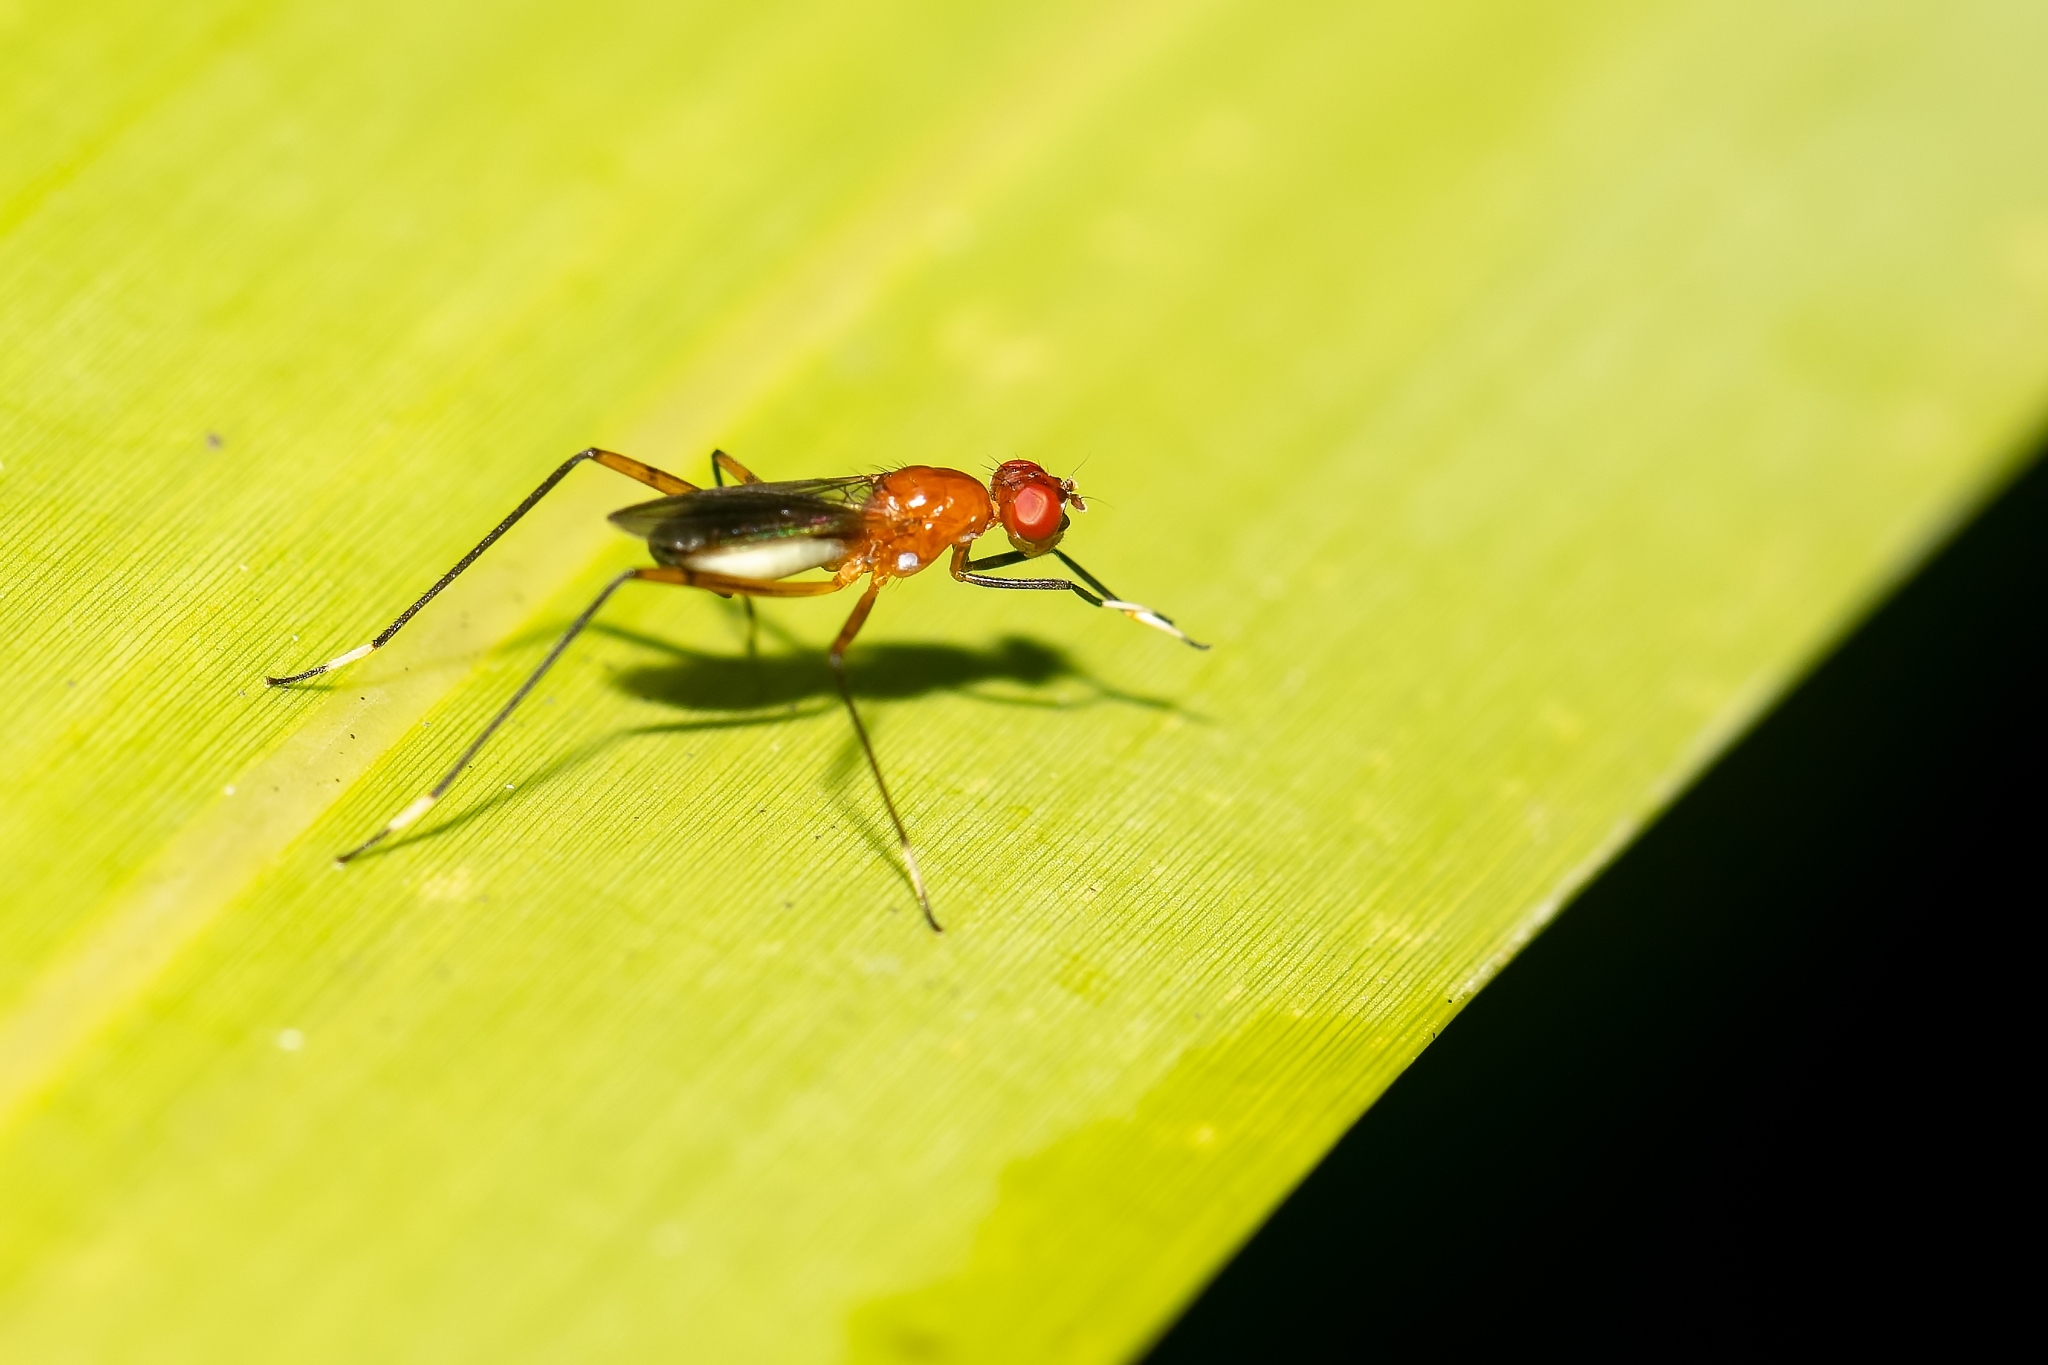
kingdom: Animalia
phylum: Arthropoda
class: Insecta
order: Diptera
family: Micropezidae
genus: Grallipeza
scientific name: Grallipeza nebulosa
